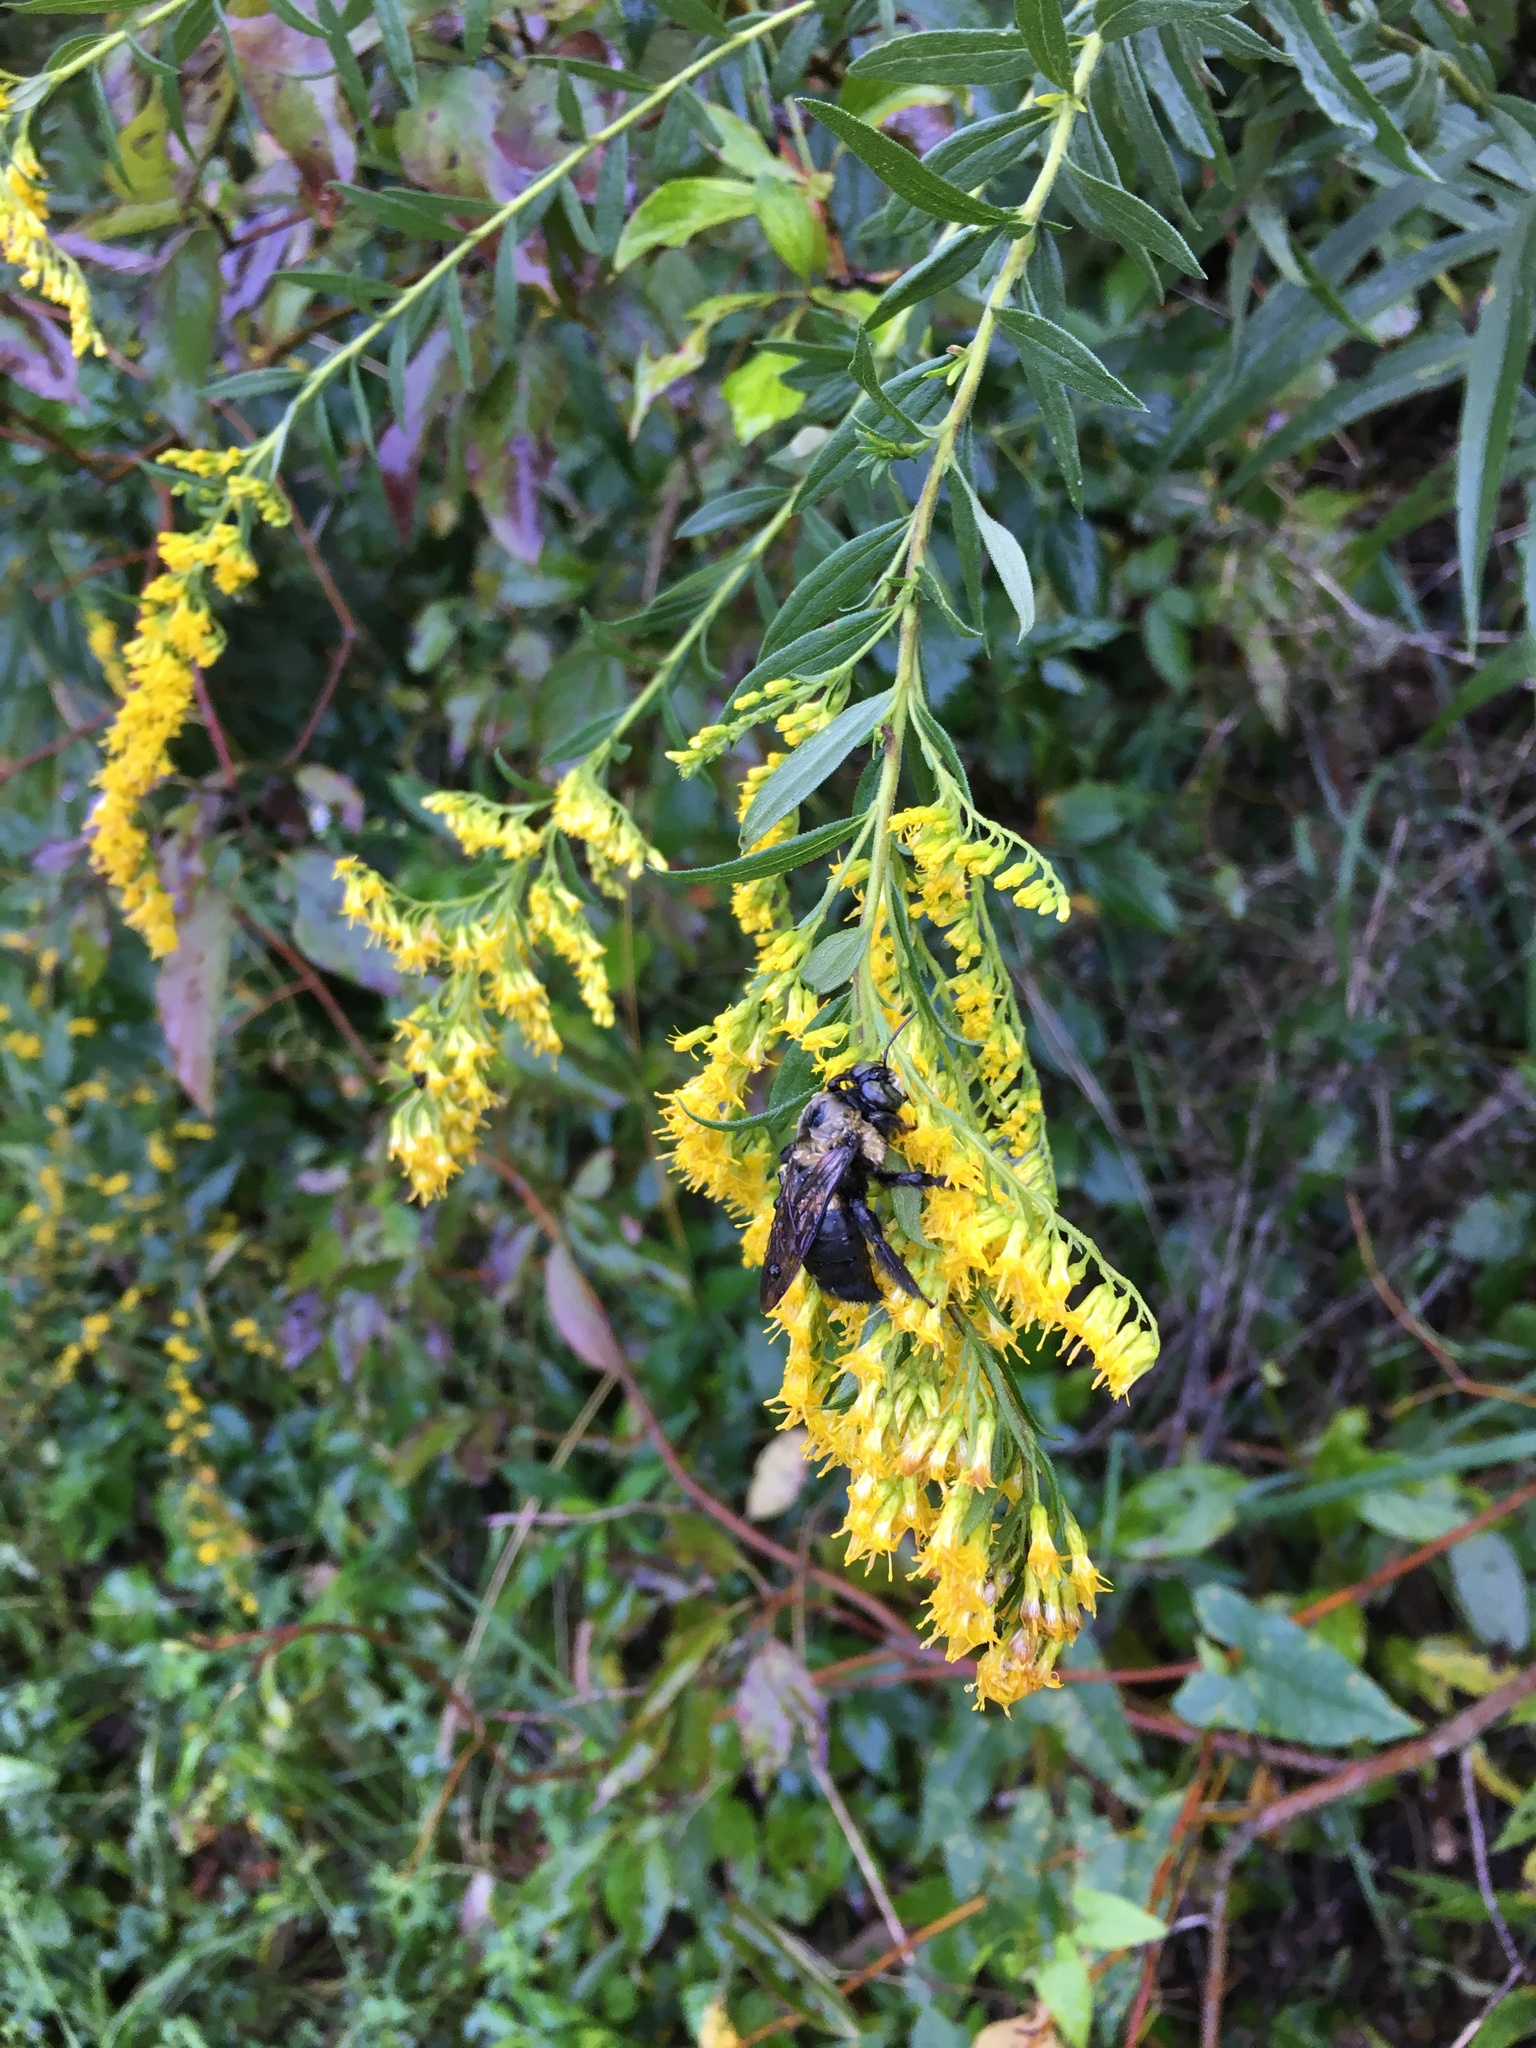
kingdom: Animalia
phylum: Arthropoda
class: Insecta
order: Hymenoptera
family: Apidae
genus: Xylocopa
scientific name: Xylocopa virginica
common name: Carpenter bee
